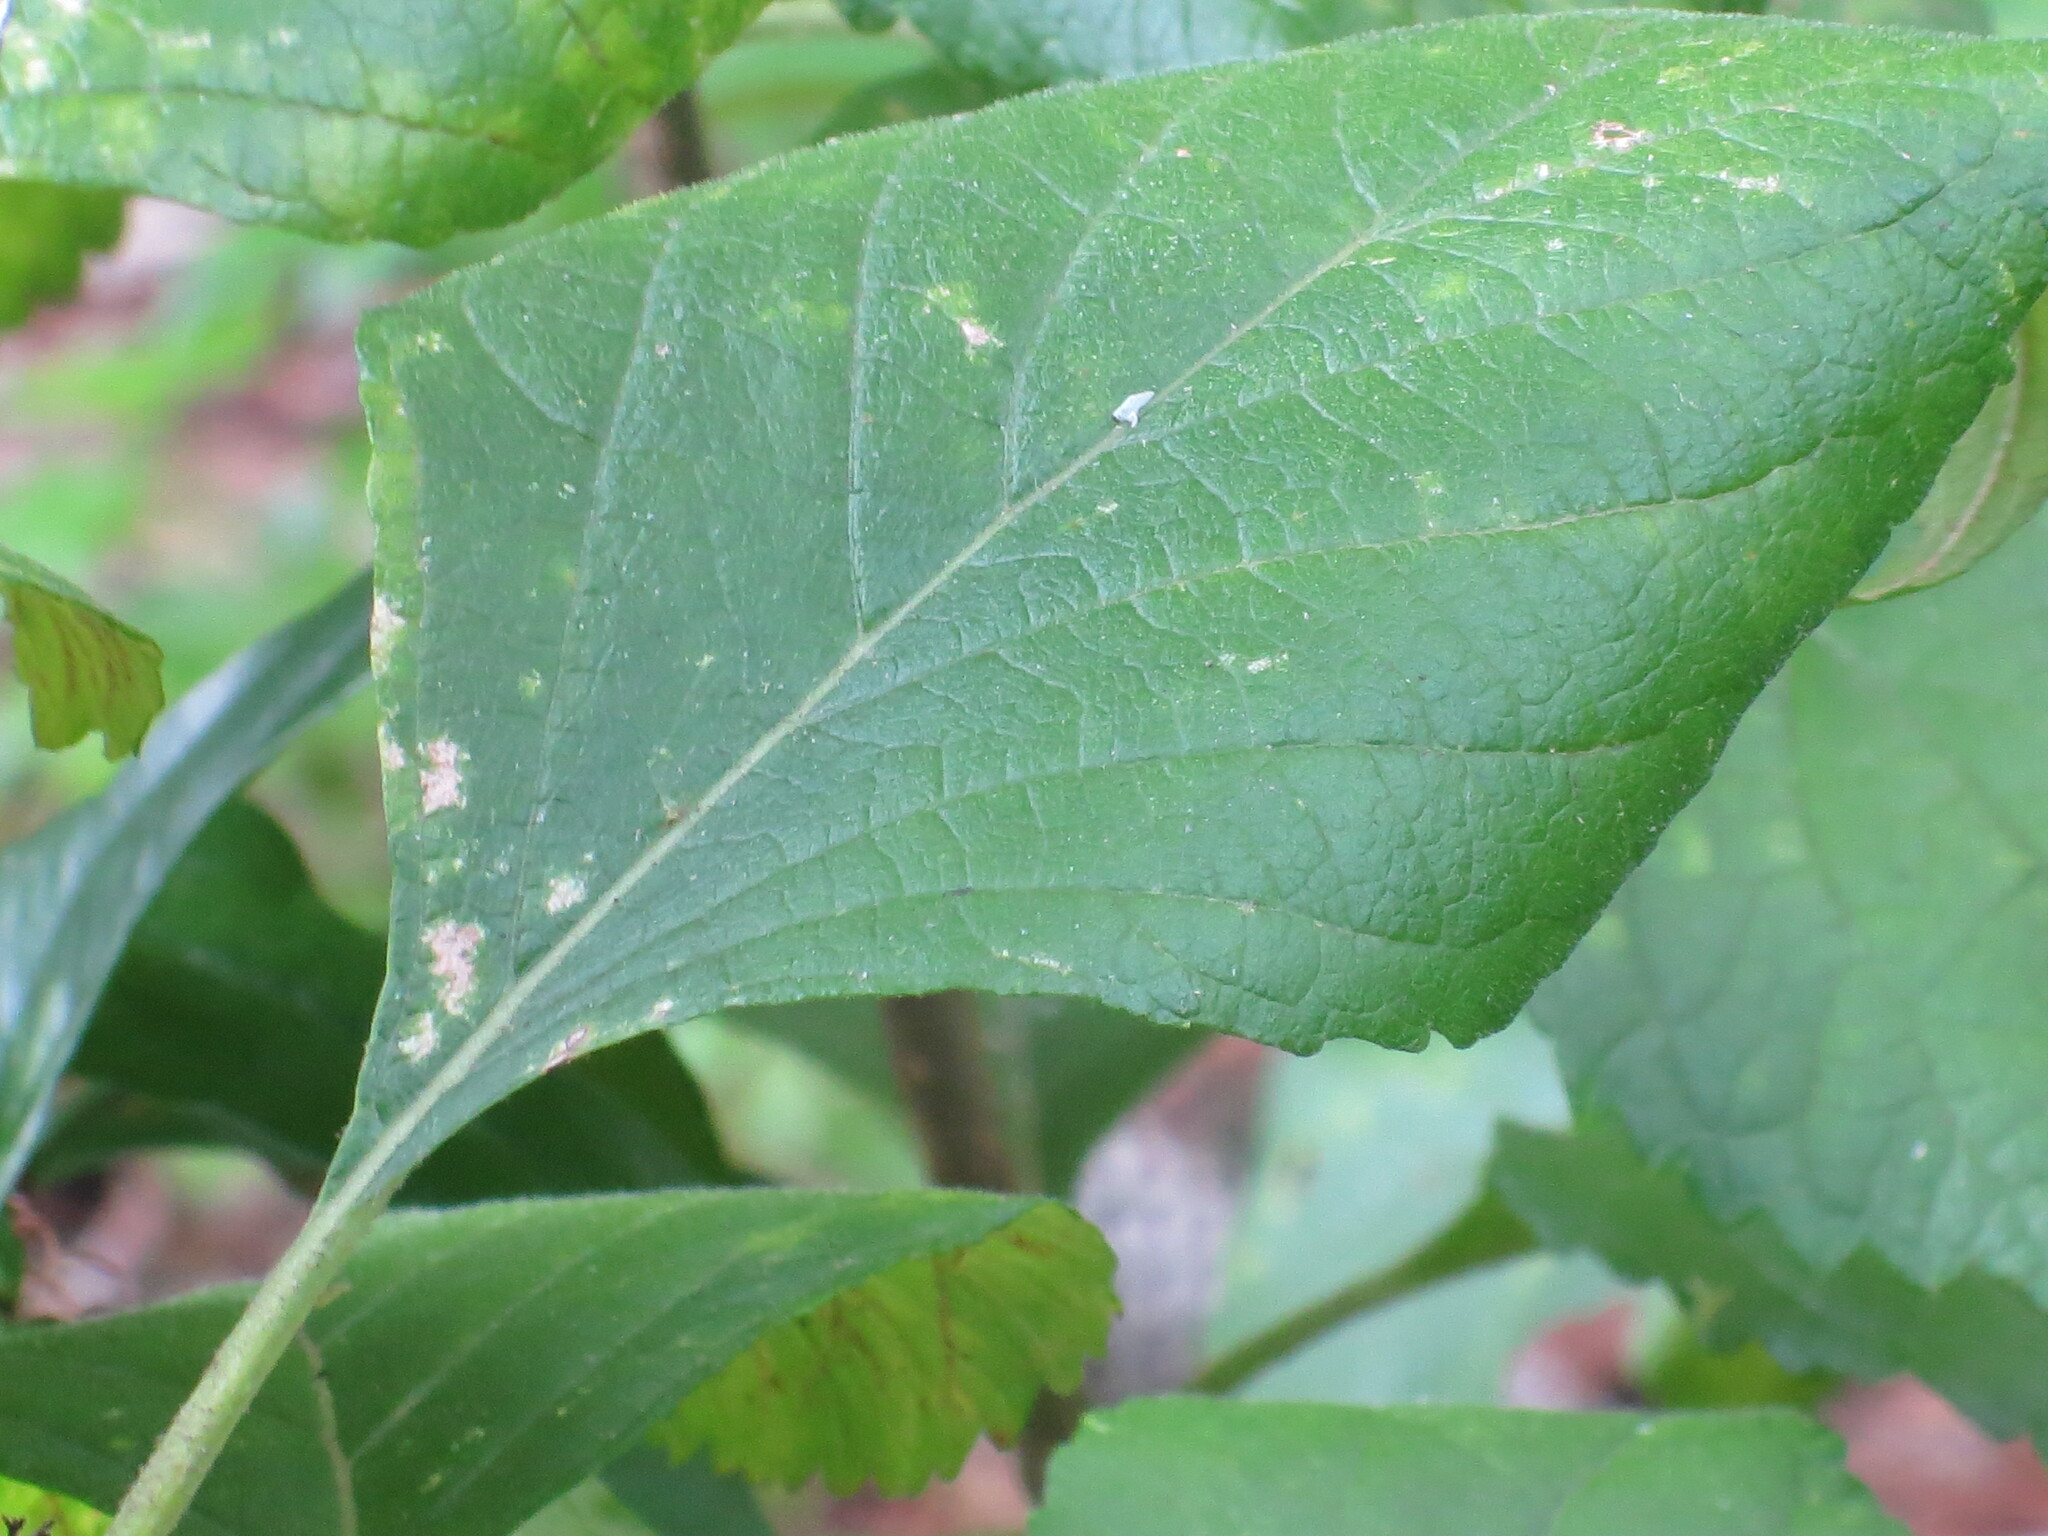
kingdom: Plantae
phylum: Tracheophyta
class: Magnoliopsida
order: Lamiales
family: Lamiaceae
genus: Callicarpa
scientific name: Callicarpa americana
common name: American beautyberry
